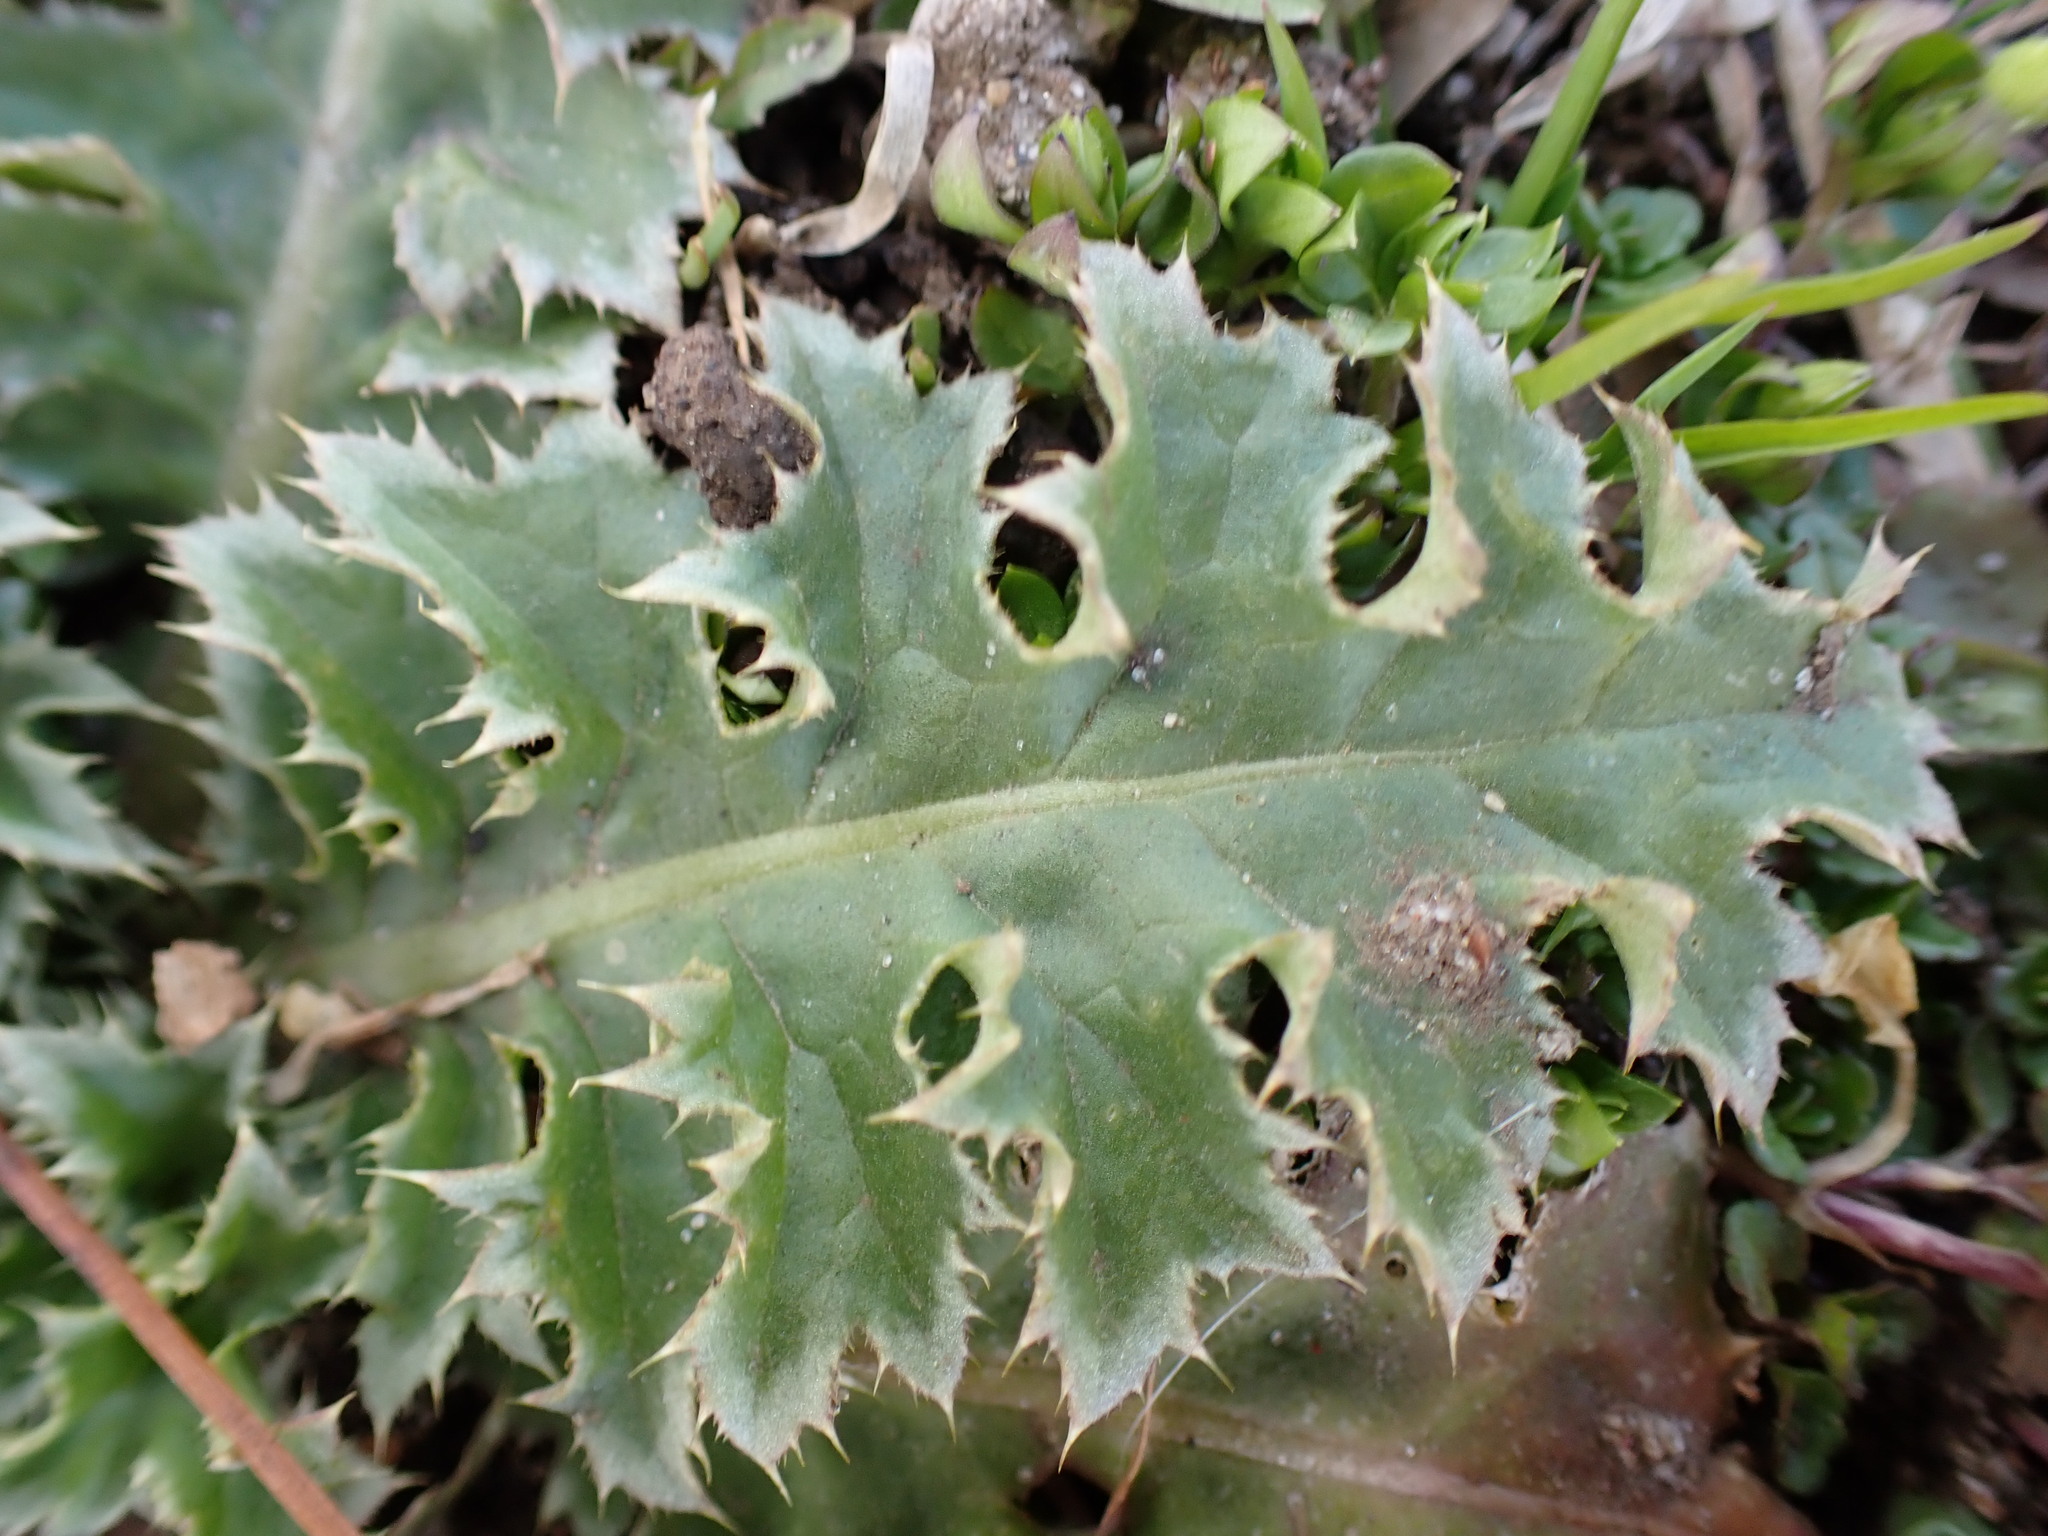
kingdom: Plantae
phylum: Tracheophyta
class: Magnoliopsida
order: Asterales
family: Asteraceae
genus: Carduus
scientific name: Carduus nutans
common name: Musk thistle
